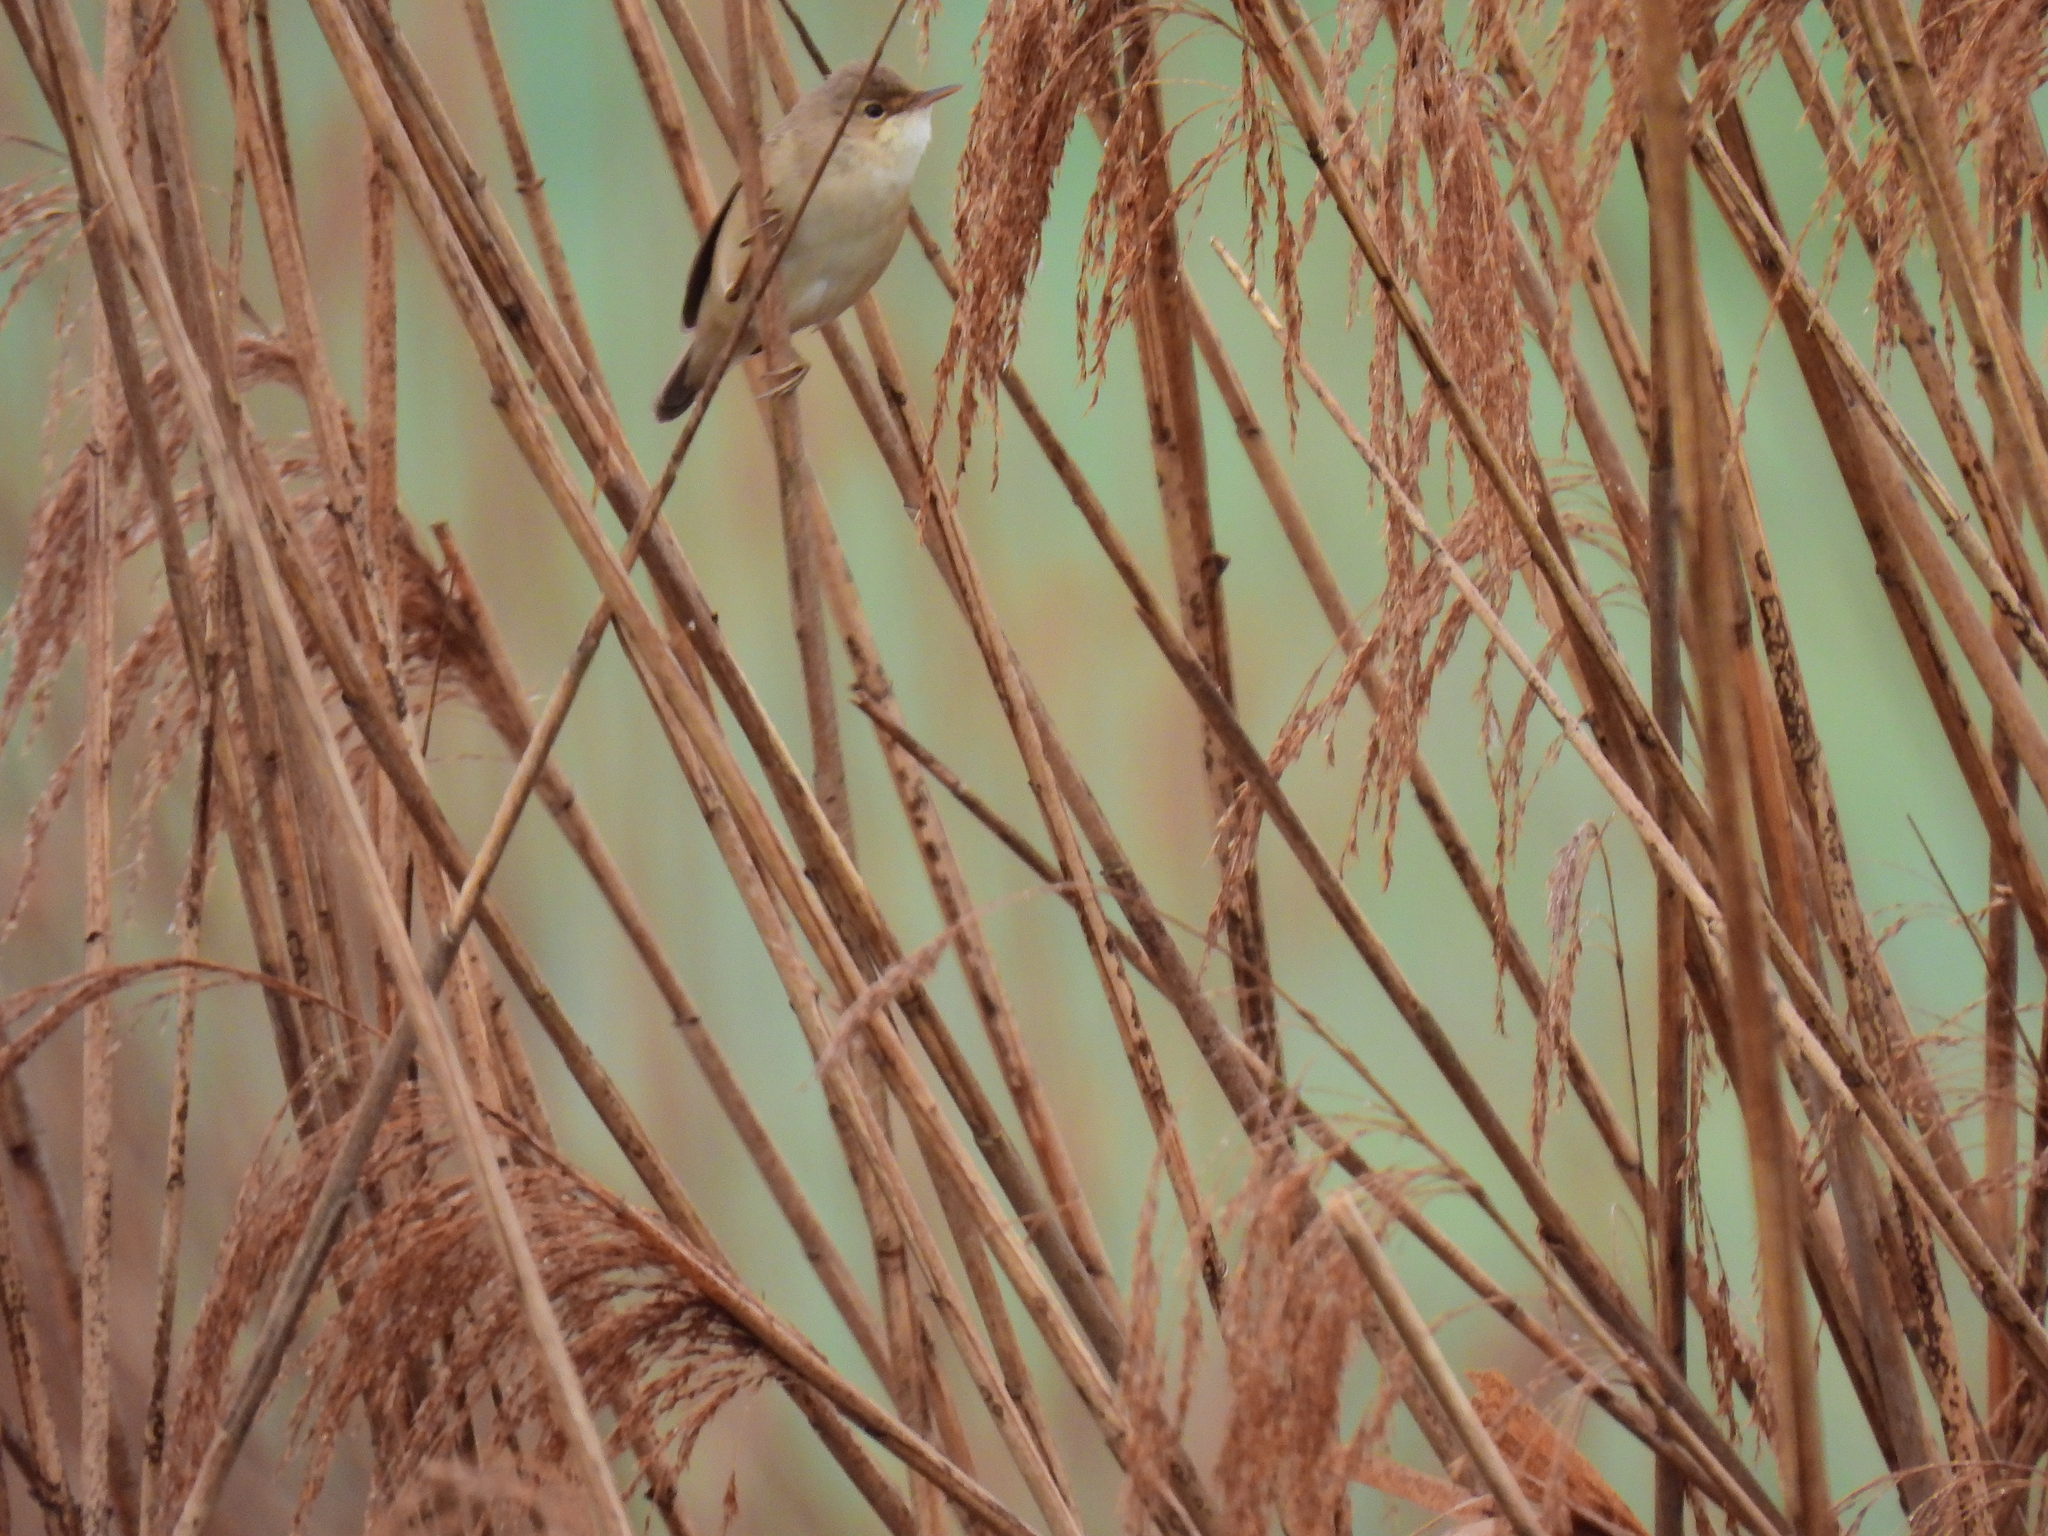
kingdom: Animalia
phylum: Chordata
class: Aves
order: Passeriformes
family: Acrocephalidae
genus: Acrocephalus
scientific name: Acrocephalus scirpaceus
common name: Eurasian reed warbler
